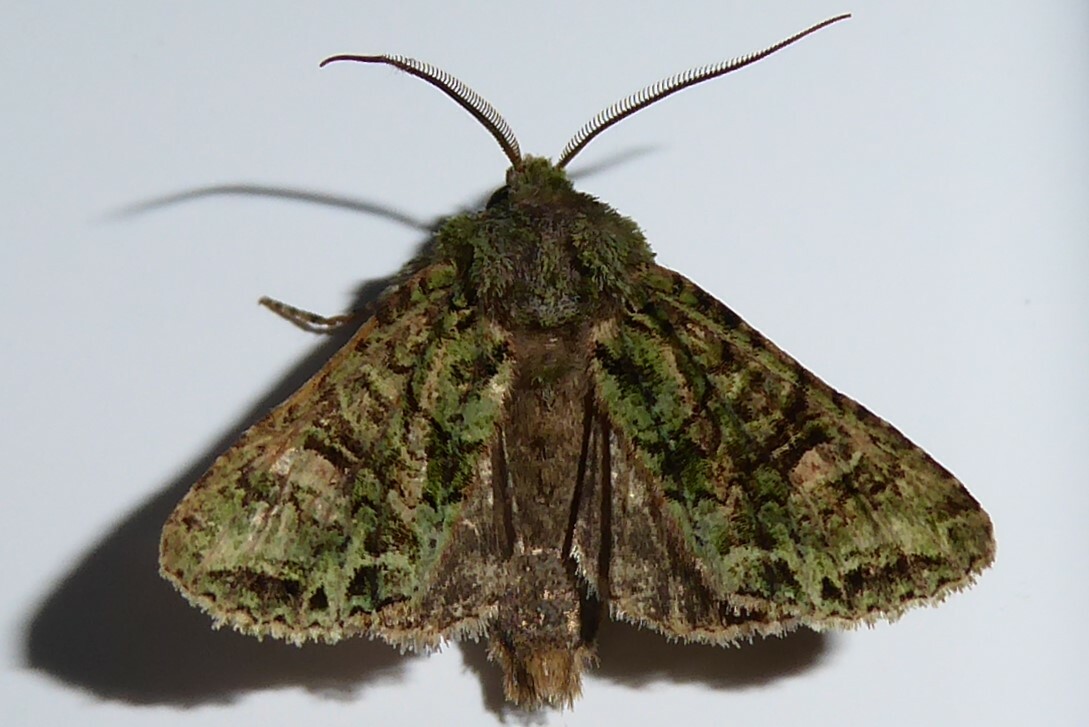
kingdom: Animalia
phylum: Arthropoda
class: Insecta
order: Lepidoptera
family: Noctuidae
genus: Ichneutica
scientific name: Ichneutica
